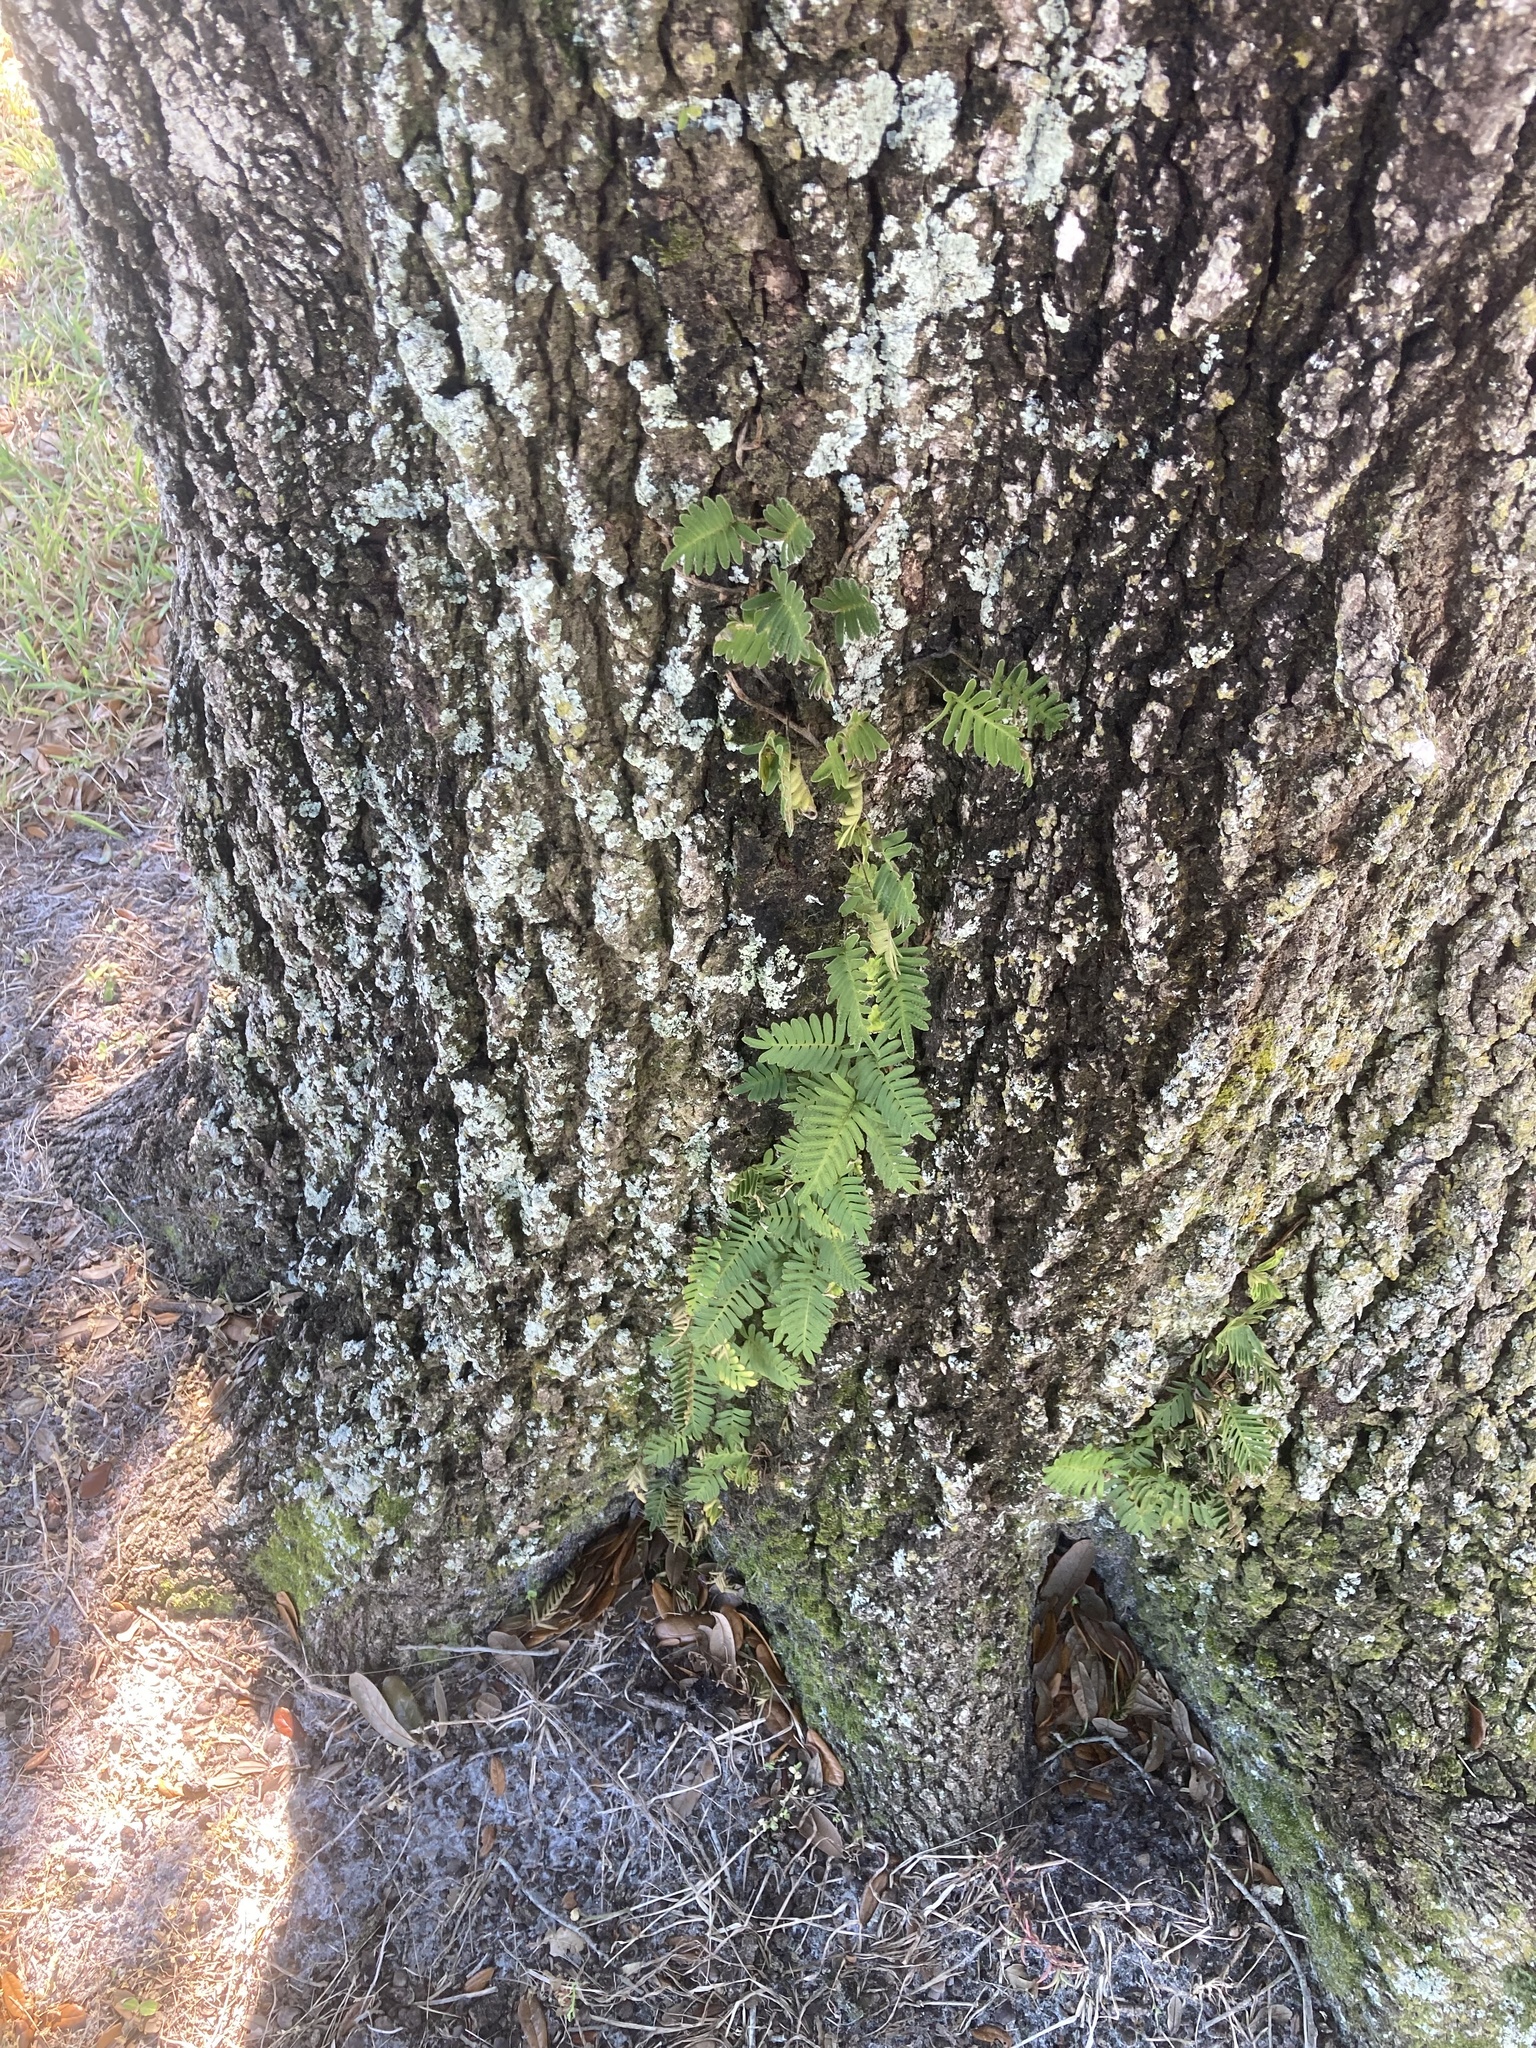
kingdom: Plantae
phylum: Tracheophyta
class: Polypodiopsida
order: Polypodiales
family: Polypodiaceae
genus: Pleopeltis
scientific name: Pleopeltis michauxiana
